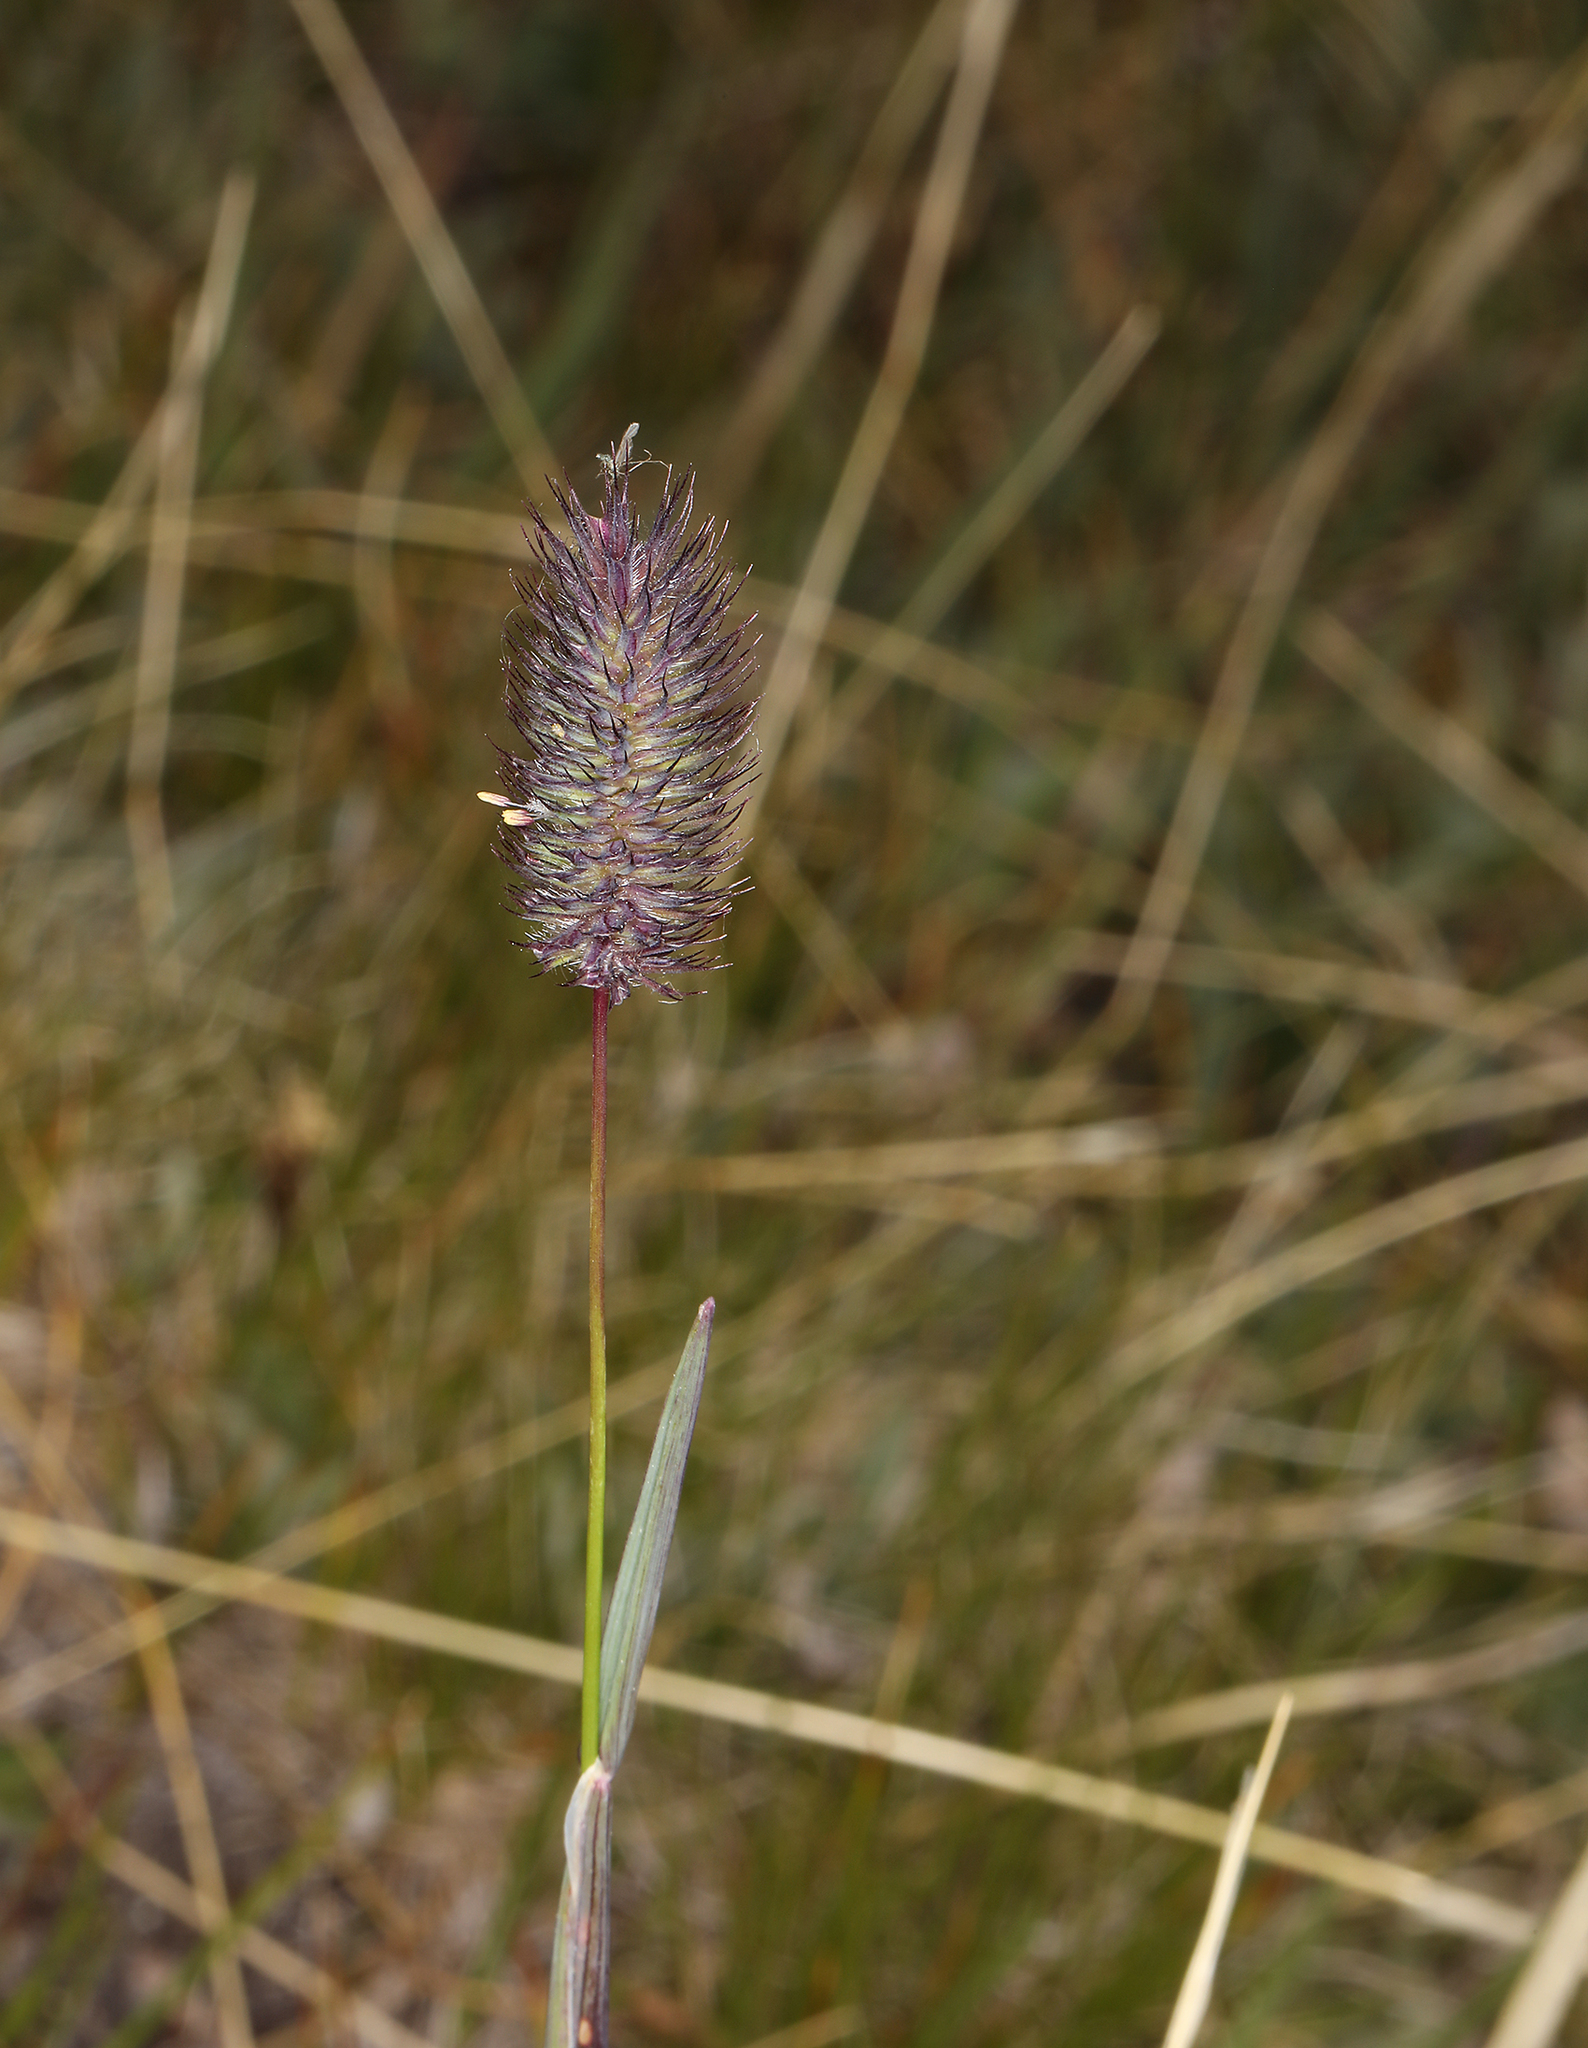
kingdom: Plantae
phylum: Tracheophyta
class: Liliopsida
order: Poales
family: Poaceae
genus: Phleum
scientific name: Phleum alpinum
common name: Alpine cat's-tail
